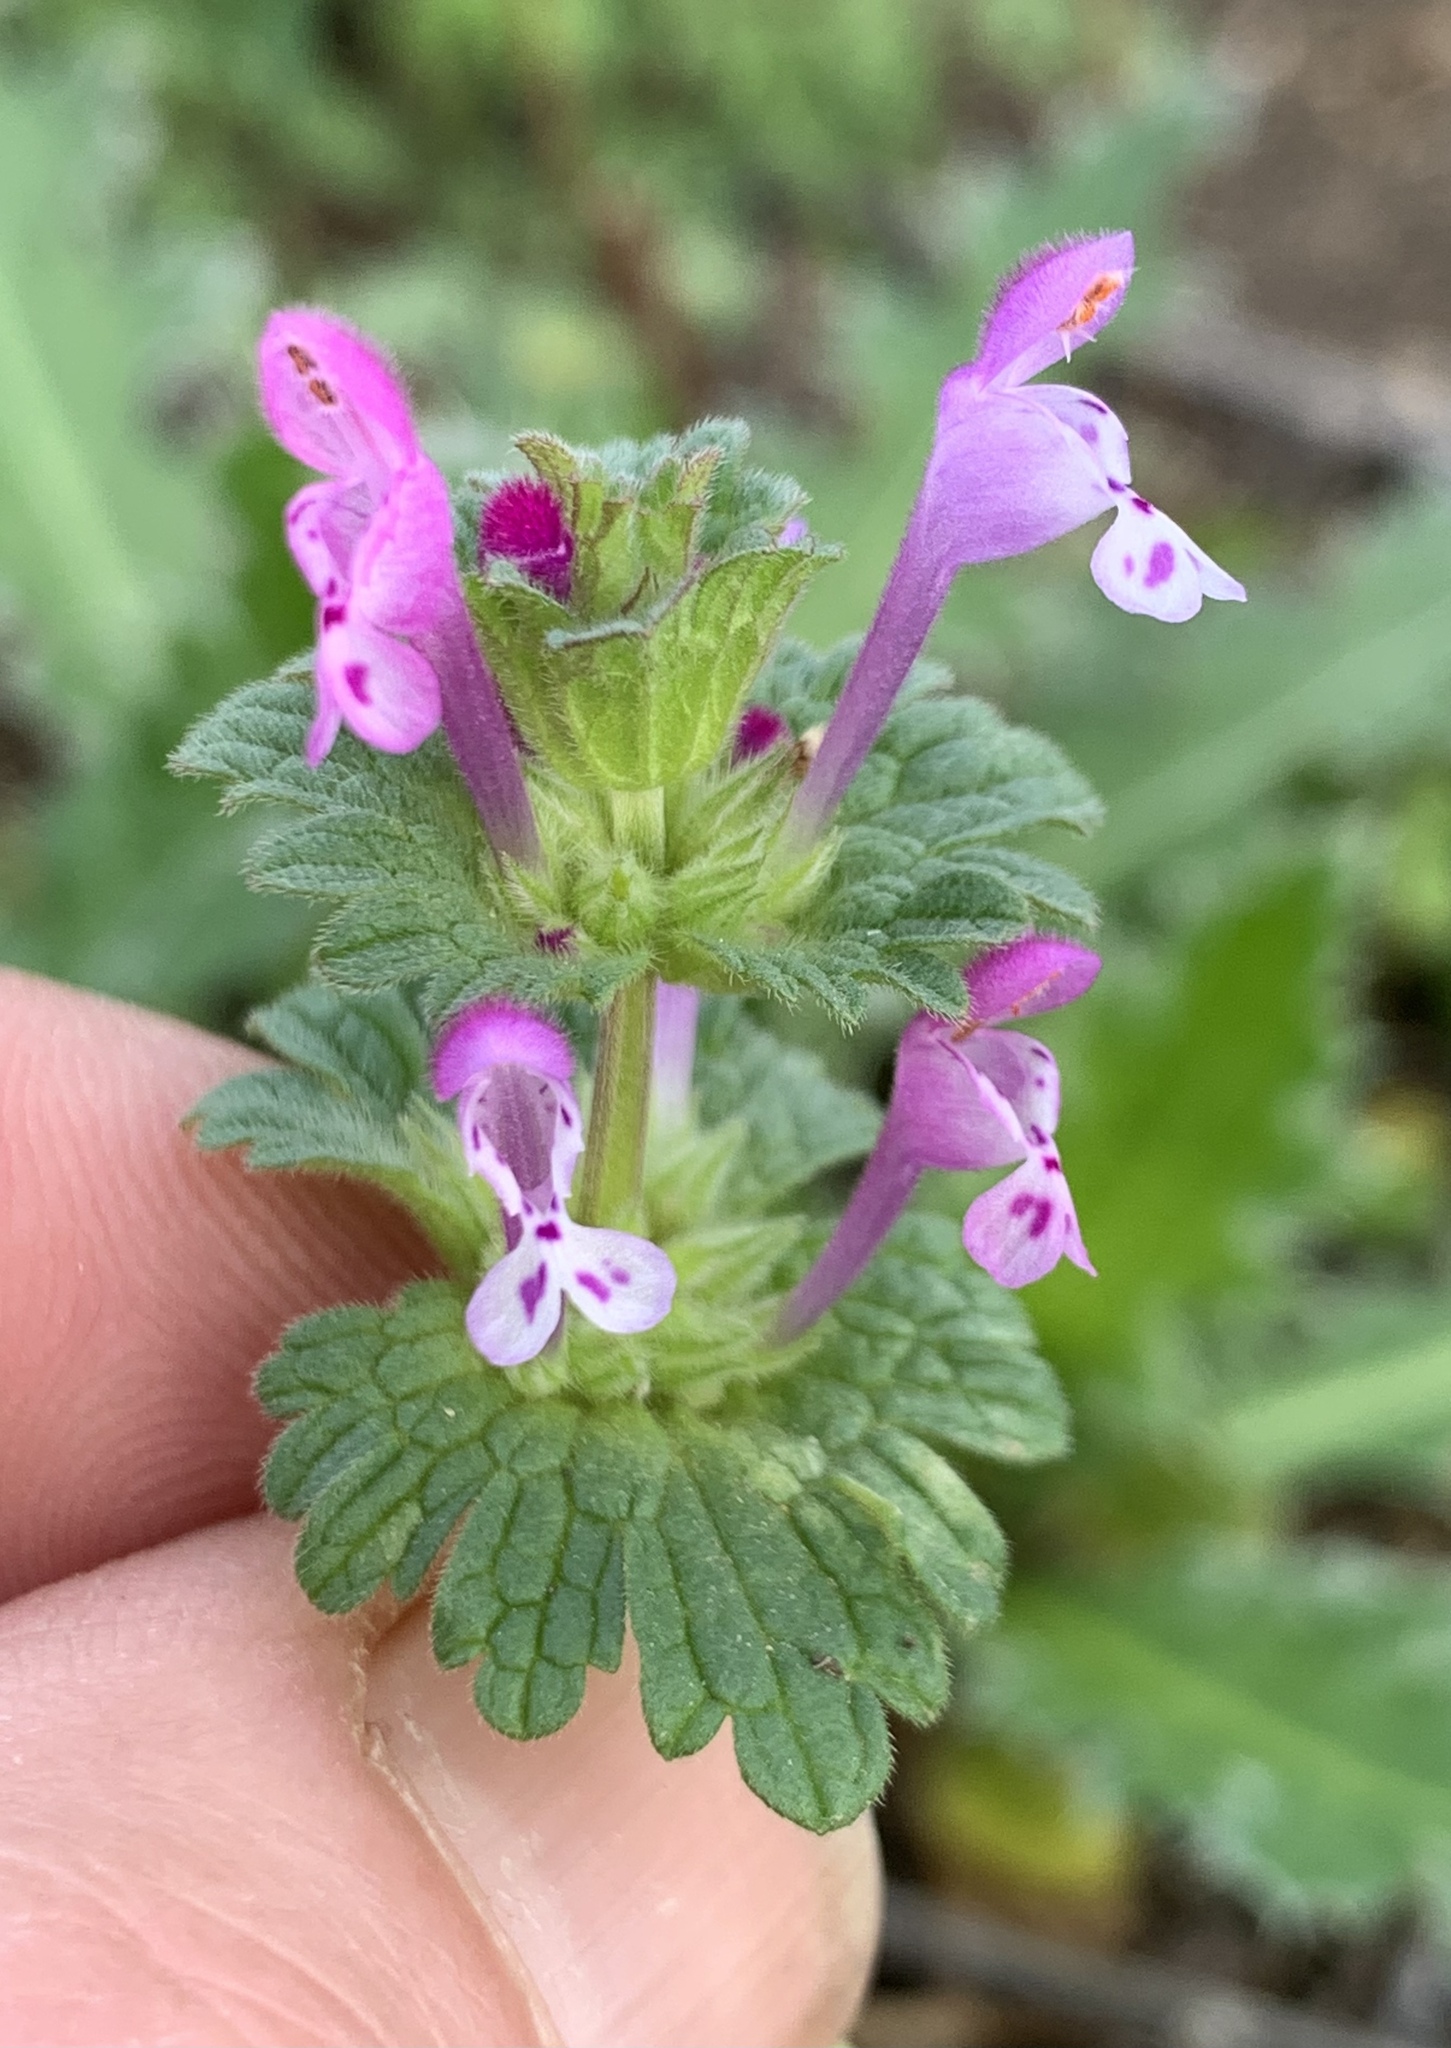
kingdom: Plantae
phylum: Tracheophyta
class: Magnoliopsida
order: Lamiales
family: Lamiaceae
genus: Lamium
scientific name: Lamium amplexicaule
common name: Henbit dead-nettle
